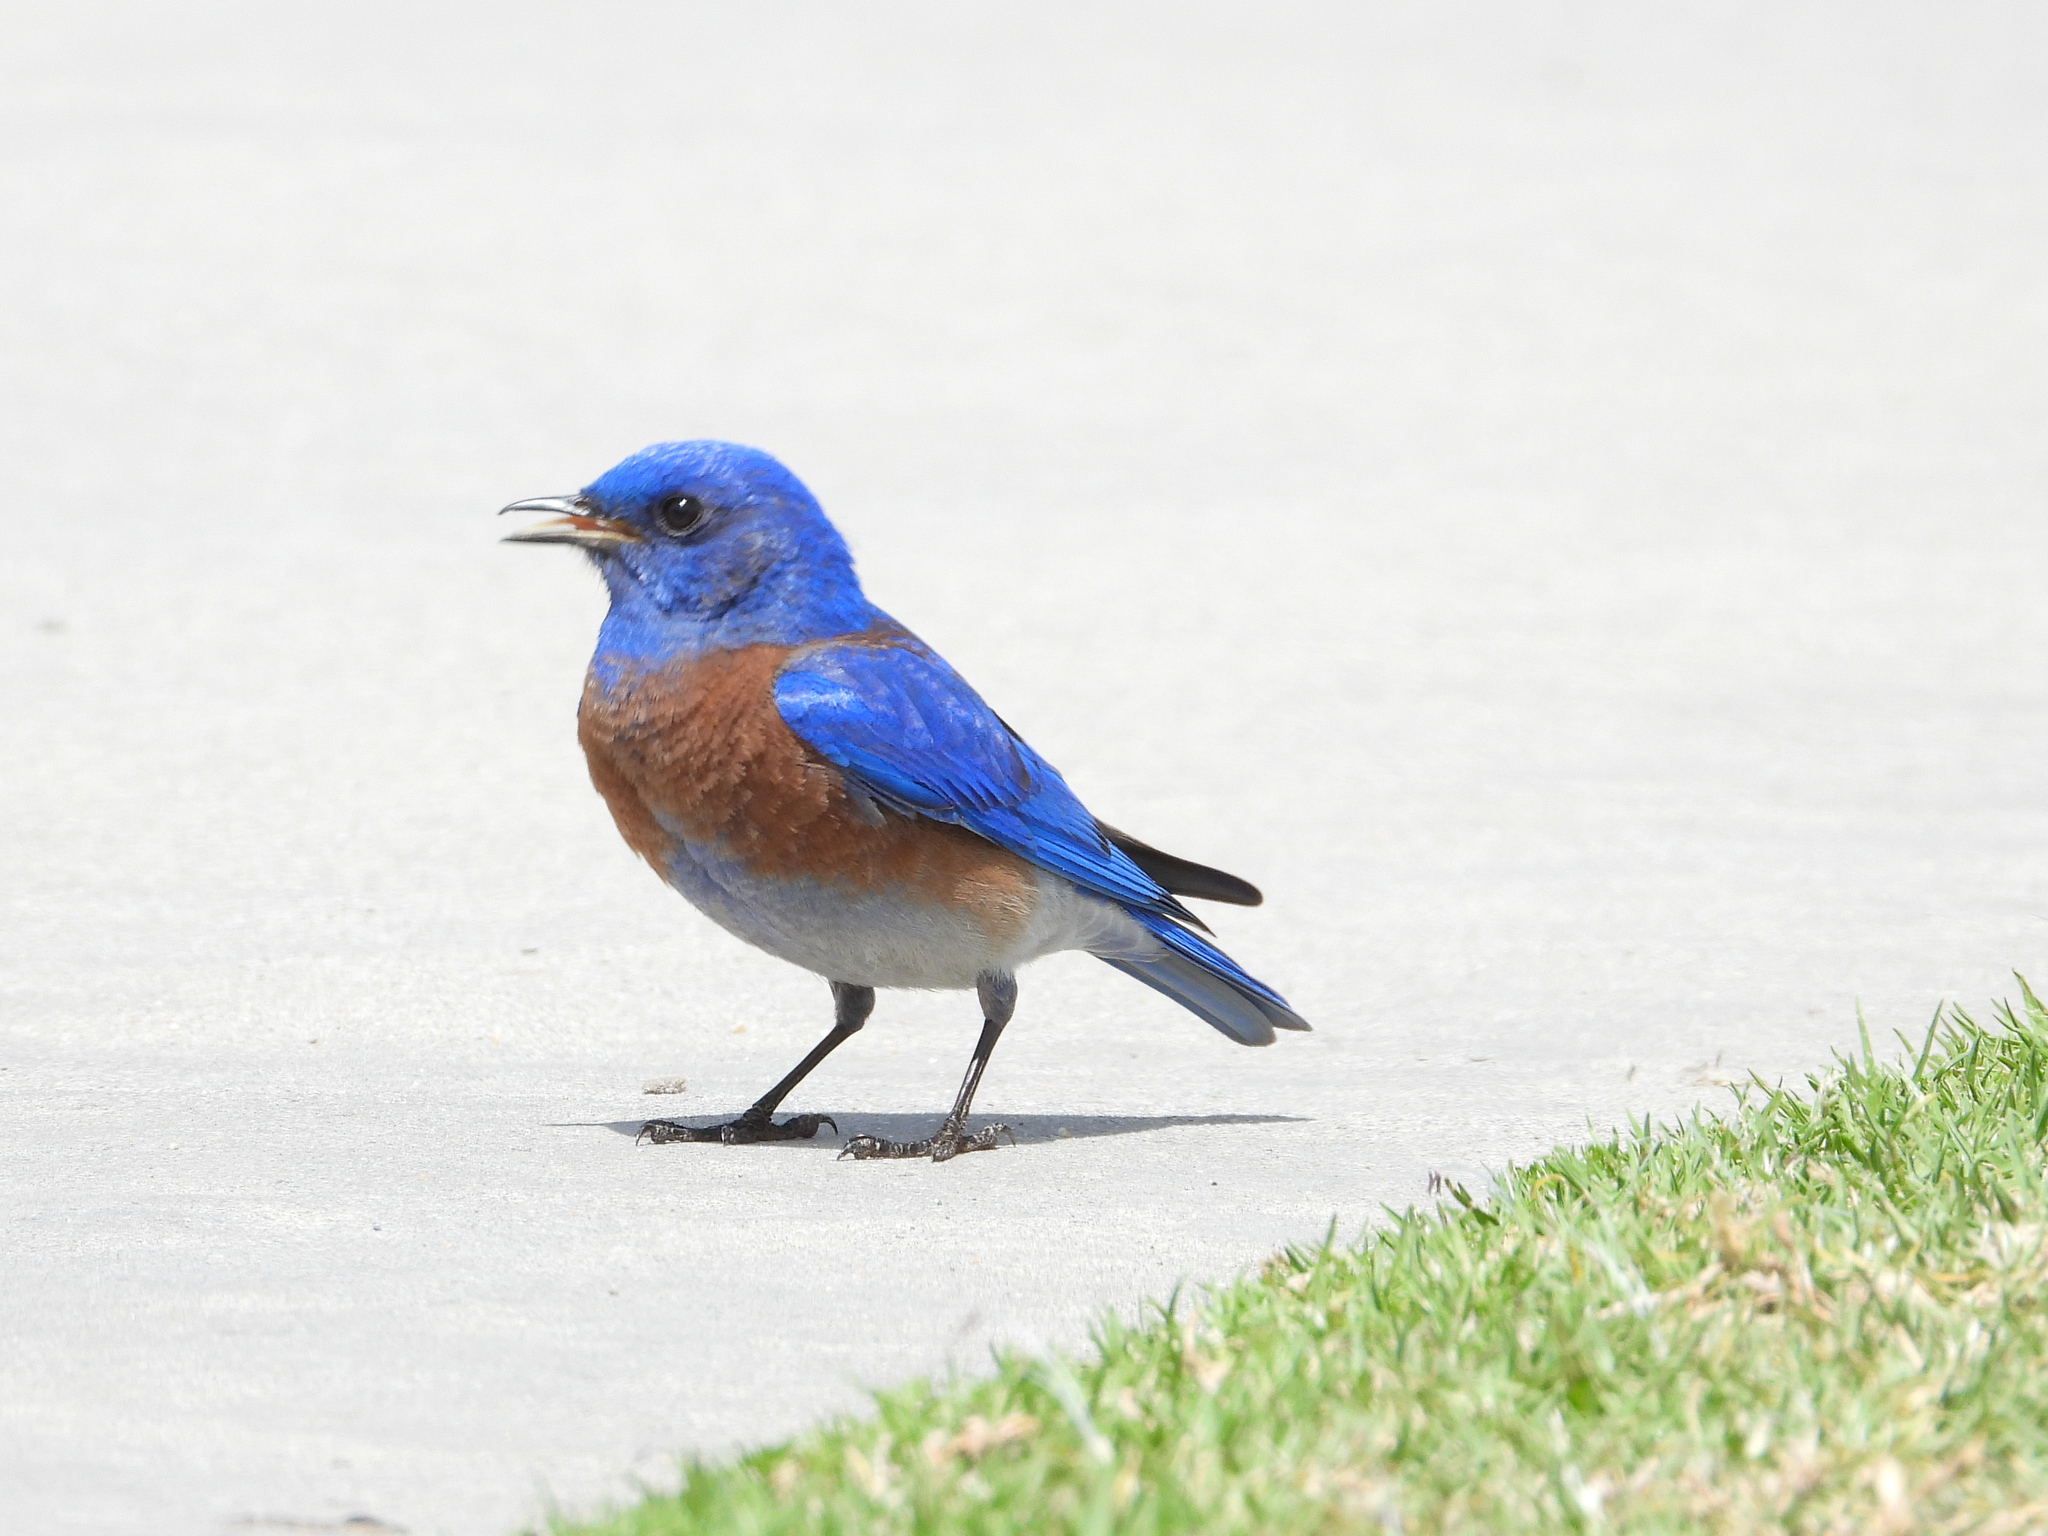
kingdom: Animalia
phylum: Chordata
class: Aves
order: Passeriformes
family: Turdidae
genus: Sialia
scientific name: Sialia mexicana
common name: Western bluebird
